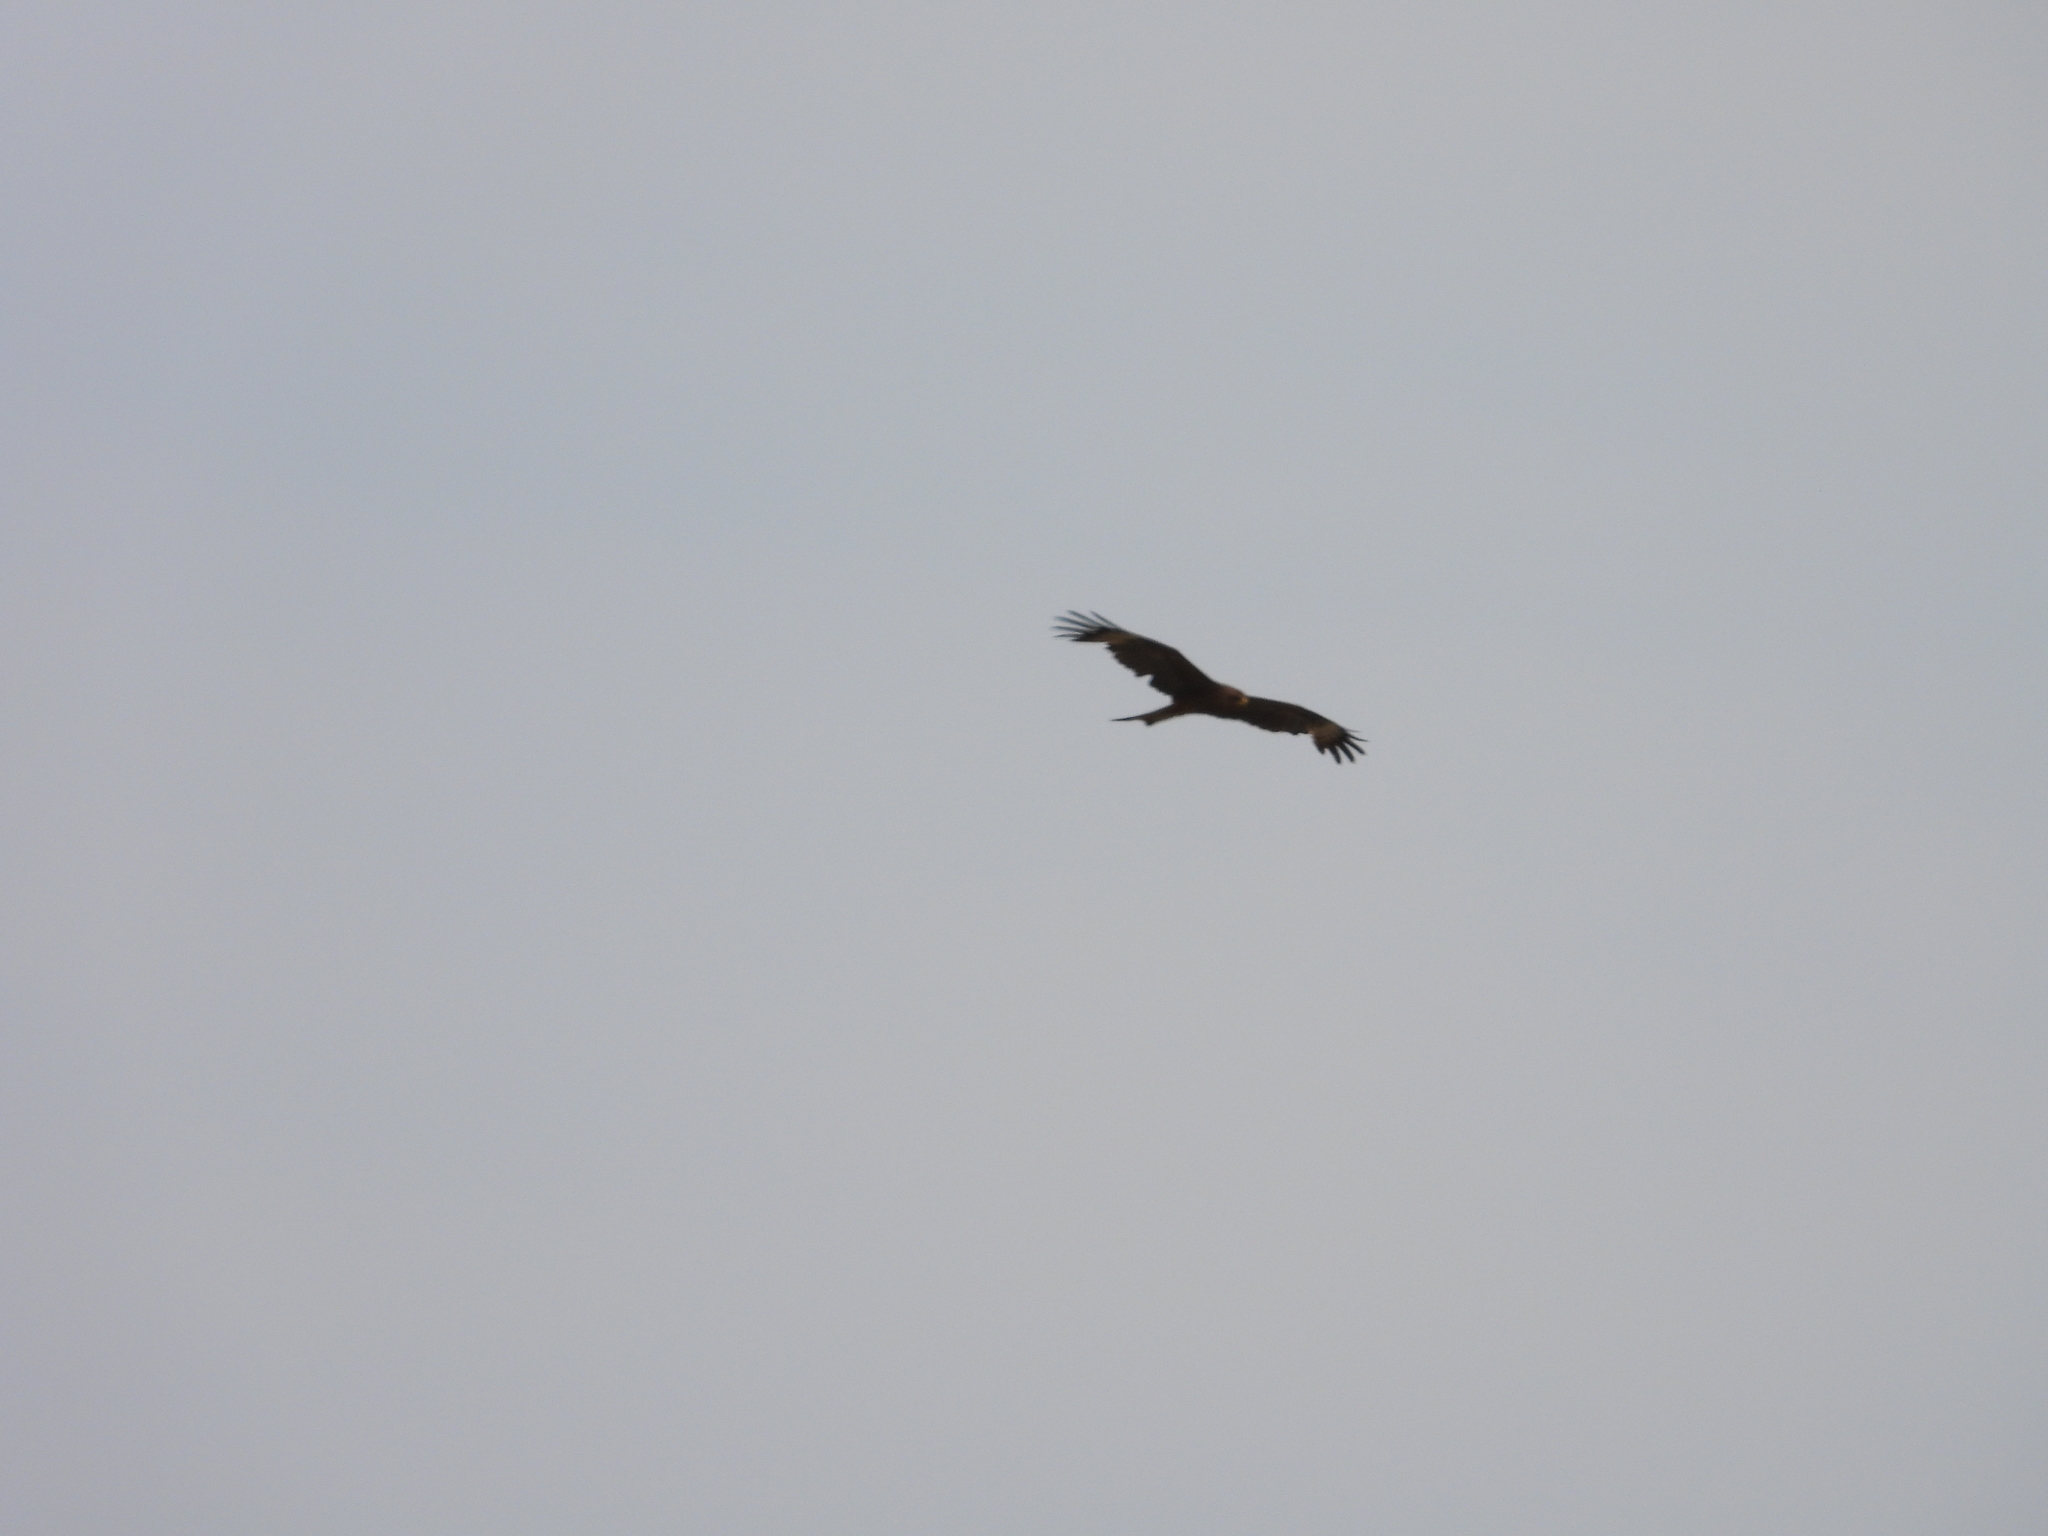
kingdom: Animalia
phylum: Chordata
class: Aves
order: Accipitriformes
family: Accipitridae
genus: Milvus
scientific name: Milvus migrans
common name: Black kite
